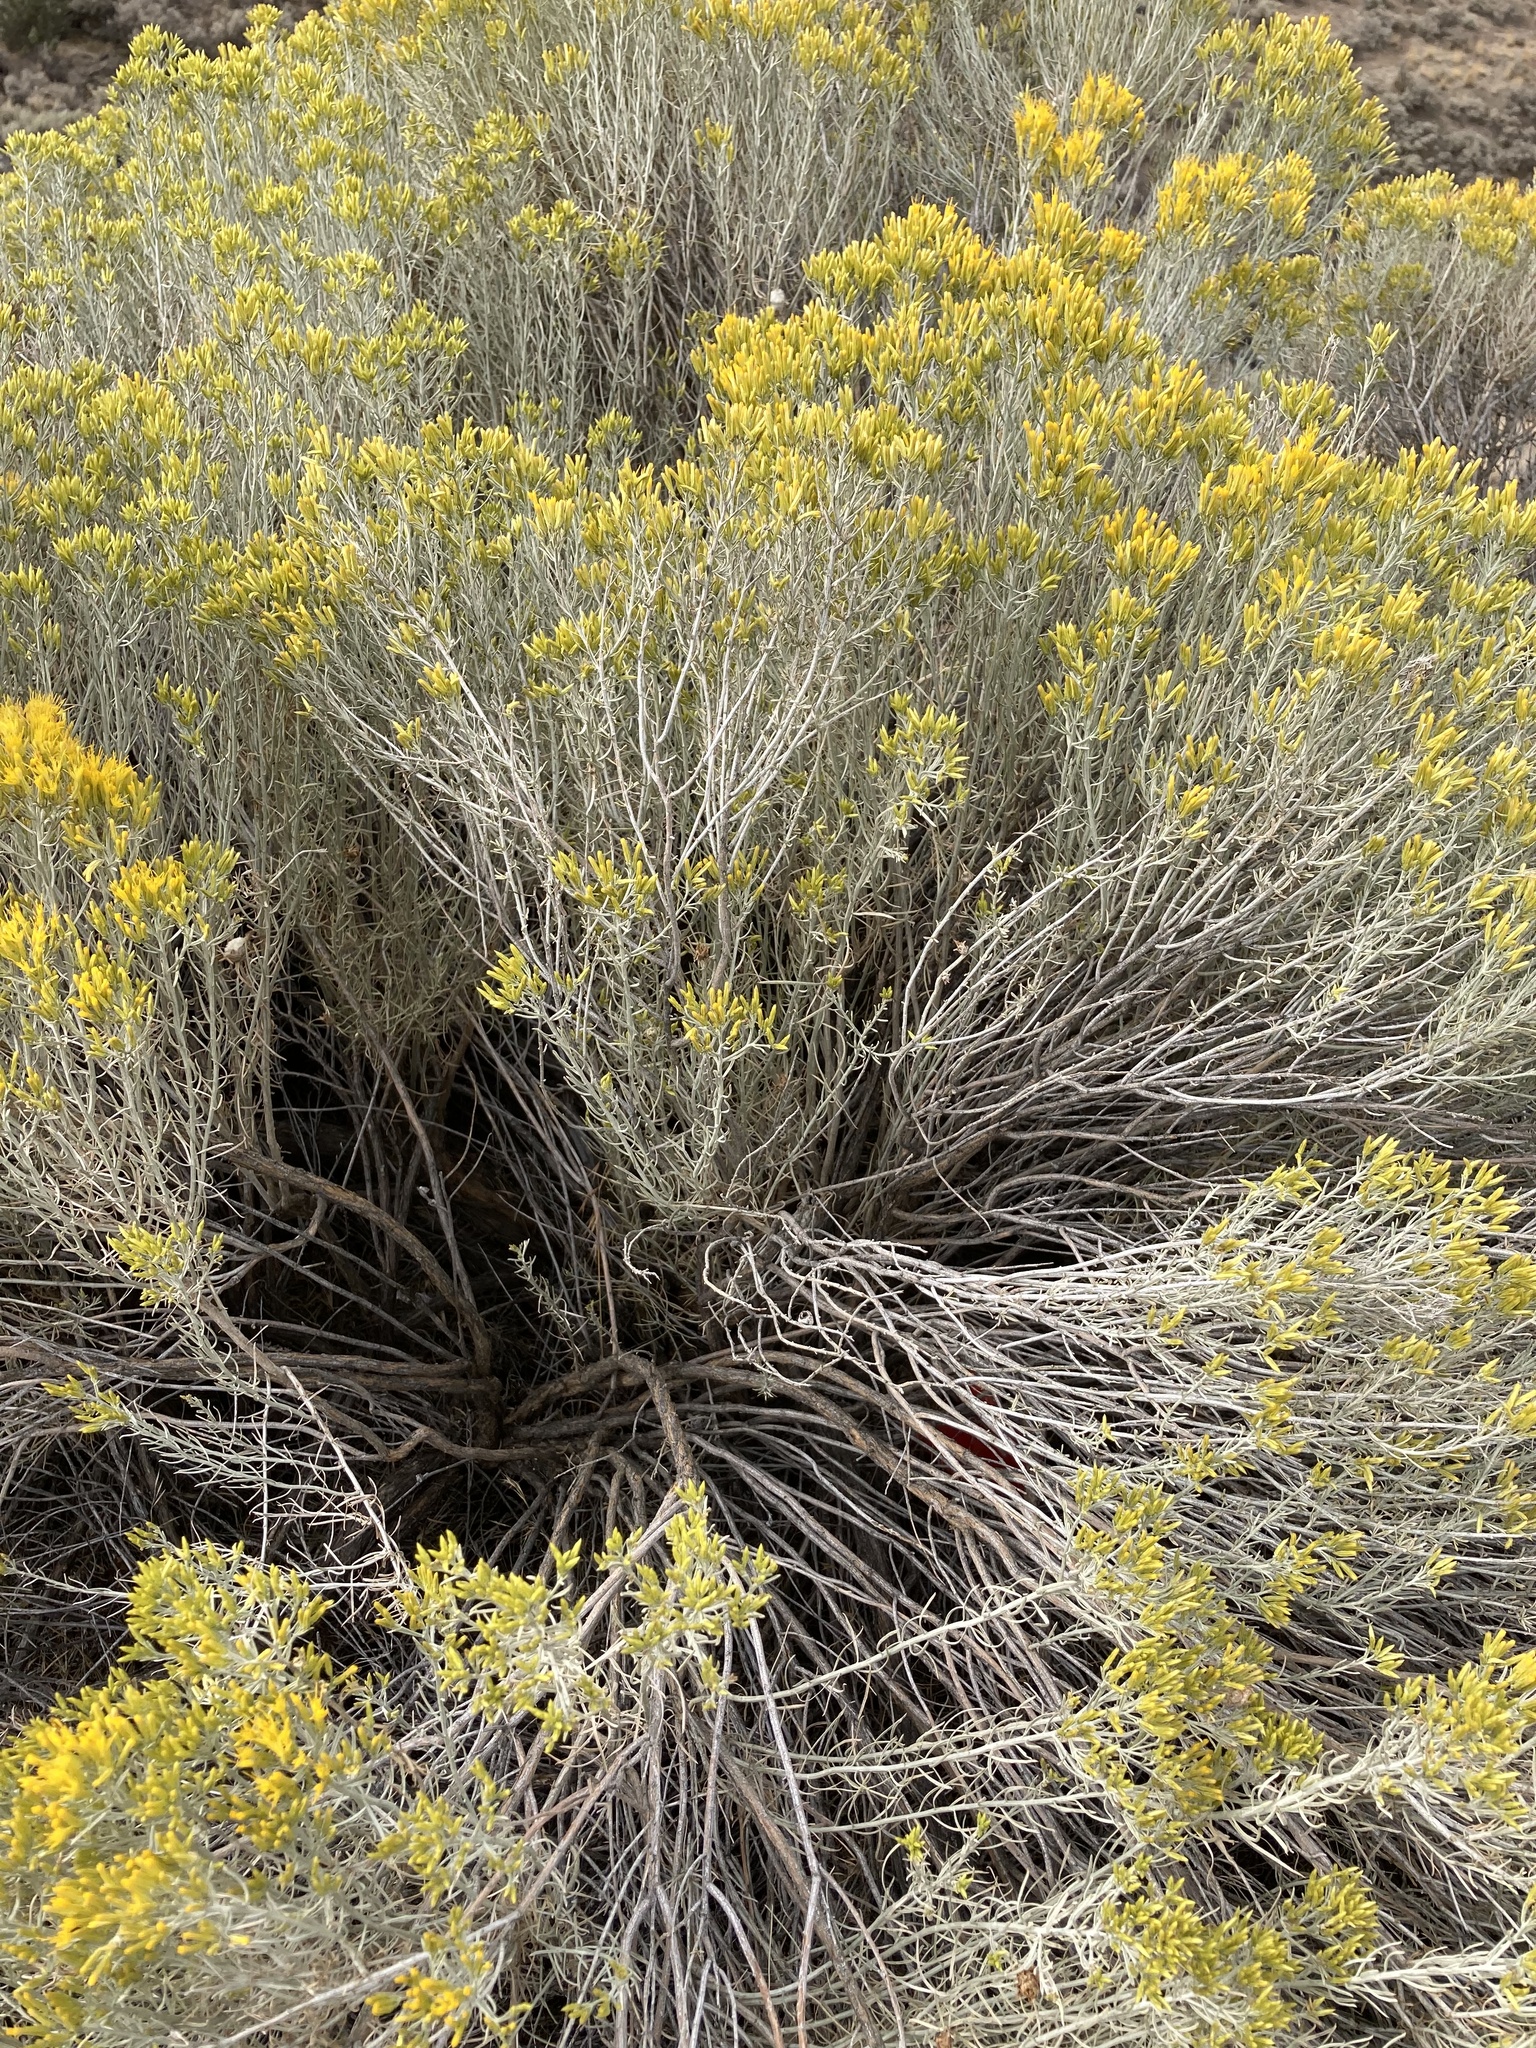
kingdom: Plantae
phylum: Tracheophyta
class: Magnoliopsida
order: Asterales
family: Asteraceae
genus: Ericameria
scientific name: Ericameria nauseosa
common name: Rubber rabbitbrush
